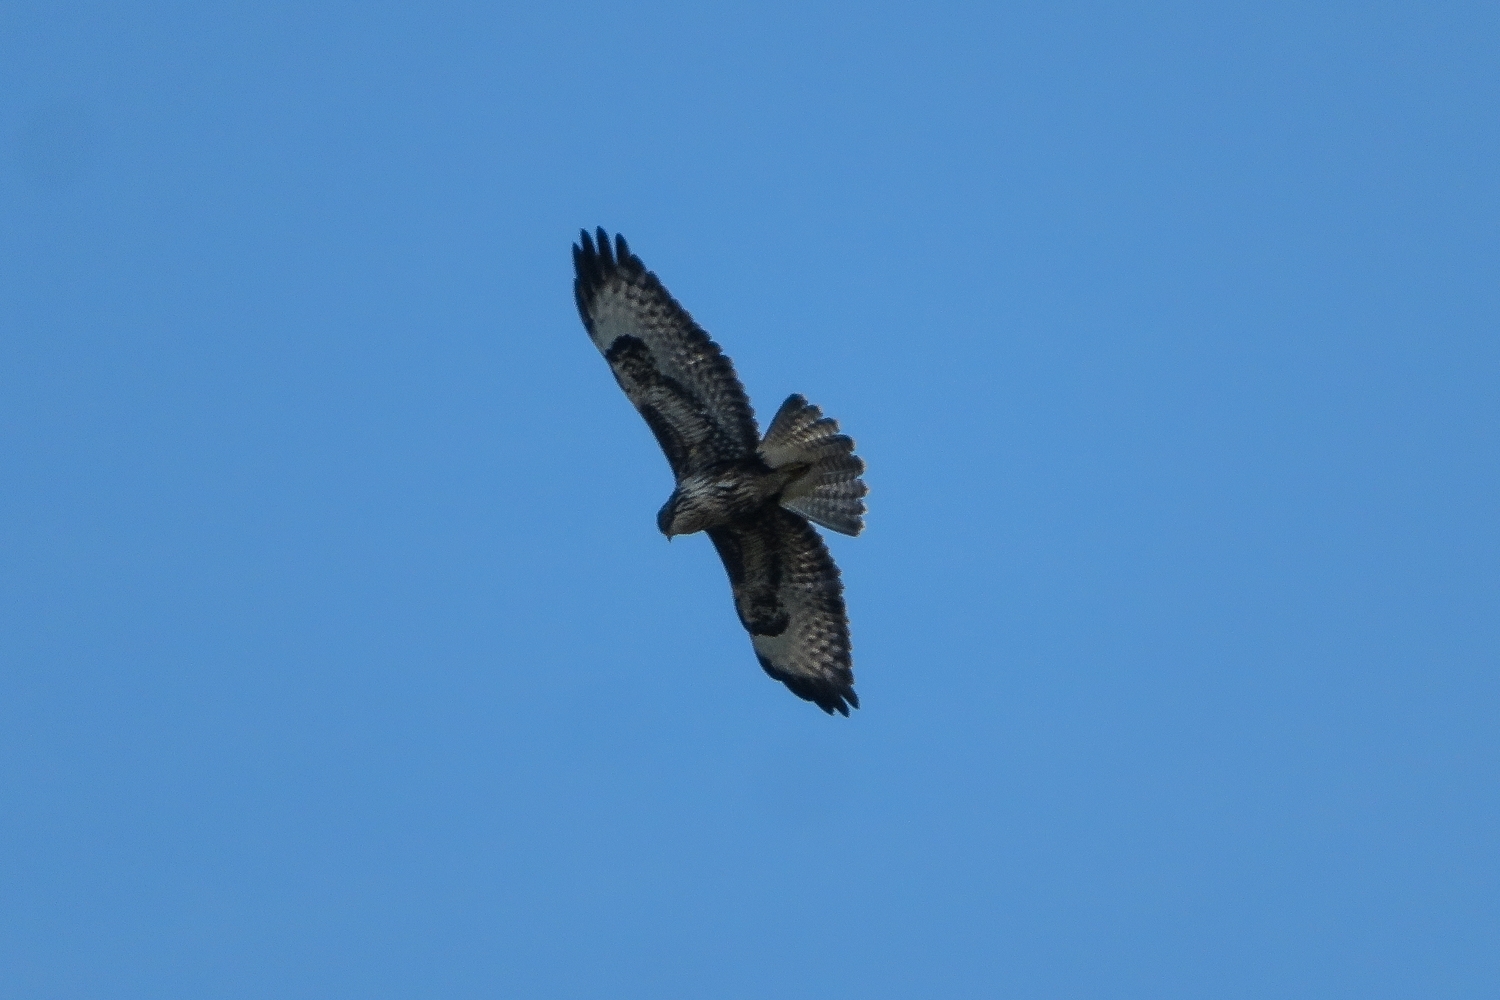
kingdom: Animalia
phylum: Chordata
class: Aves
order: Accipitriformes
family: Accipitridae
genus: Buteo
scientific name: Buteo buteo
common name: Common buzzard
